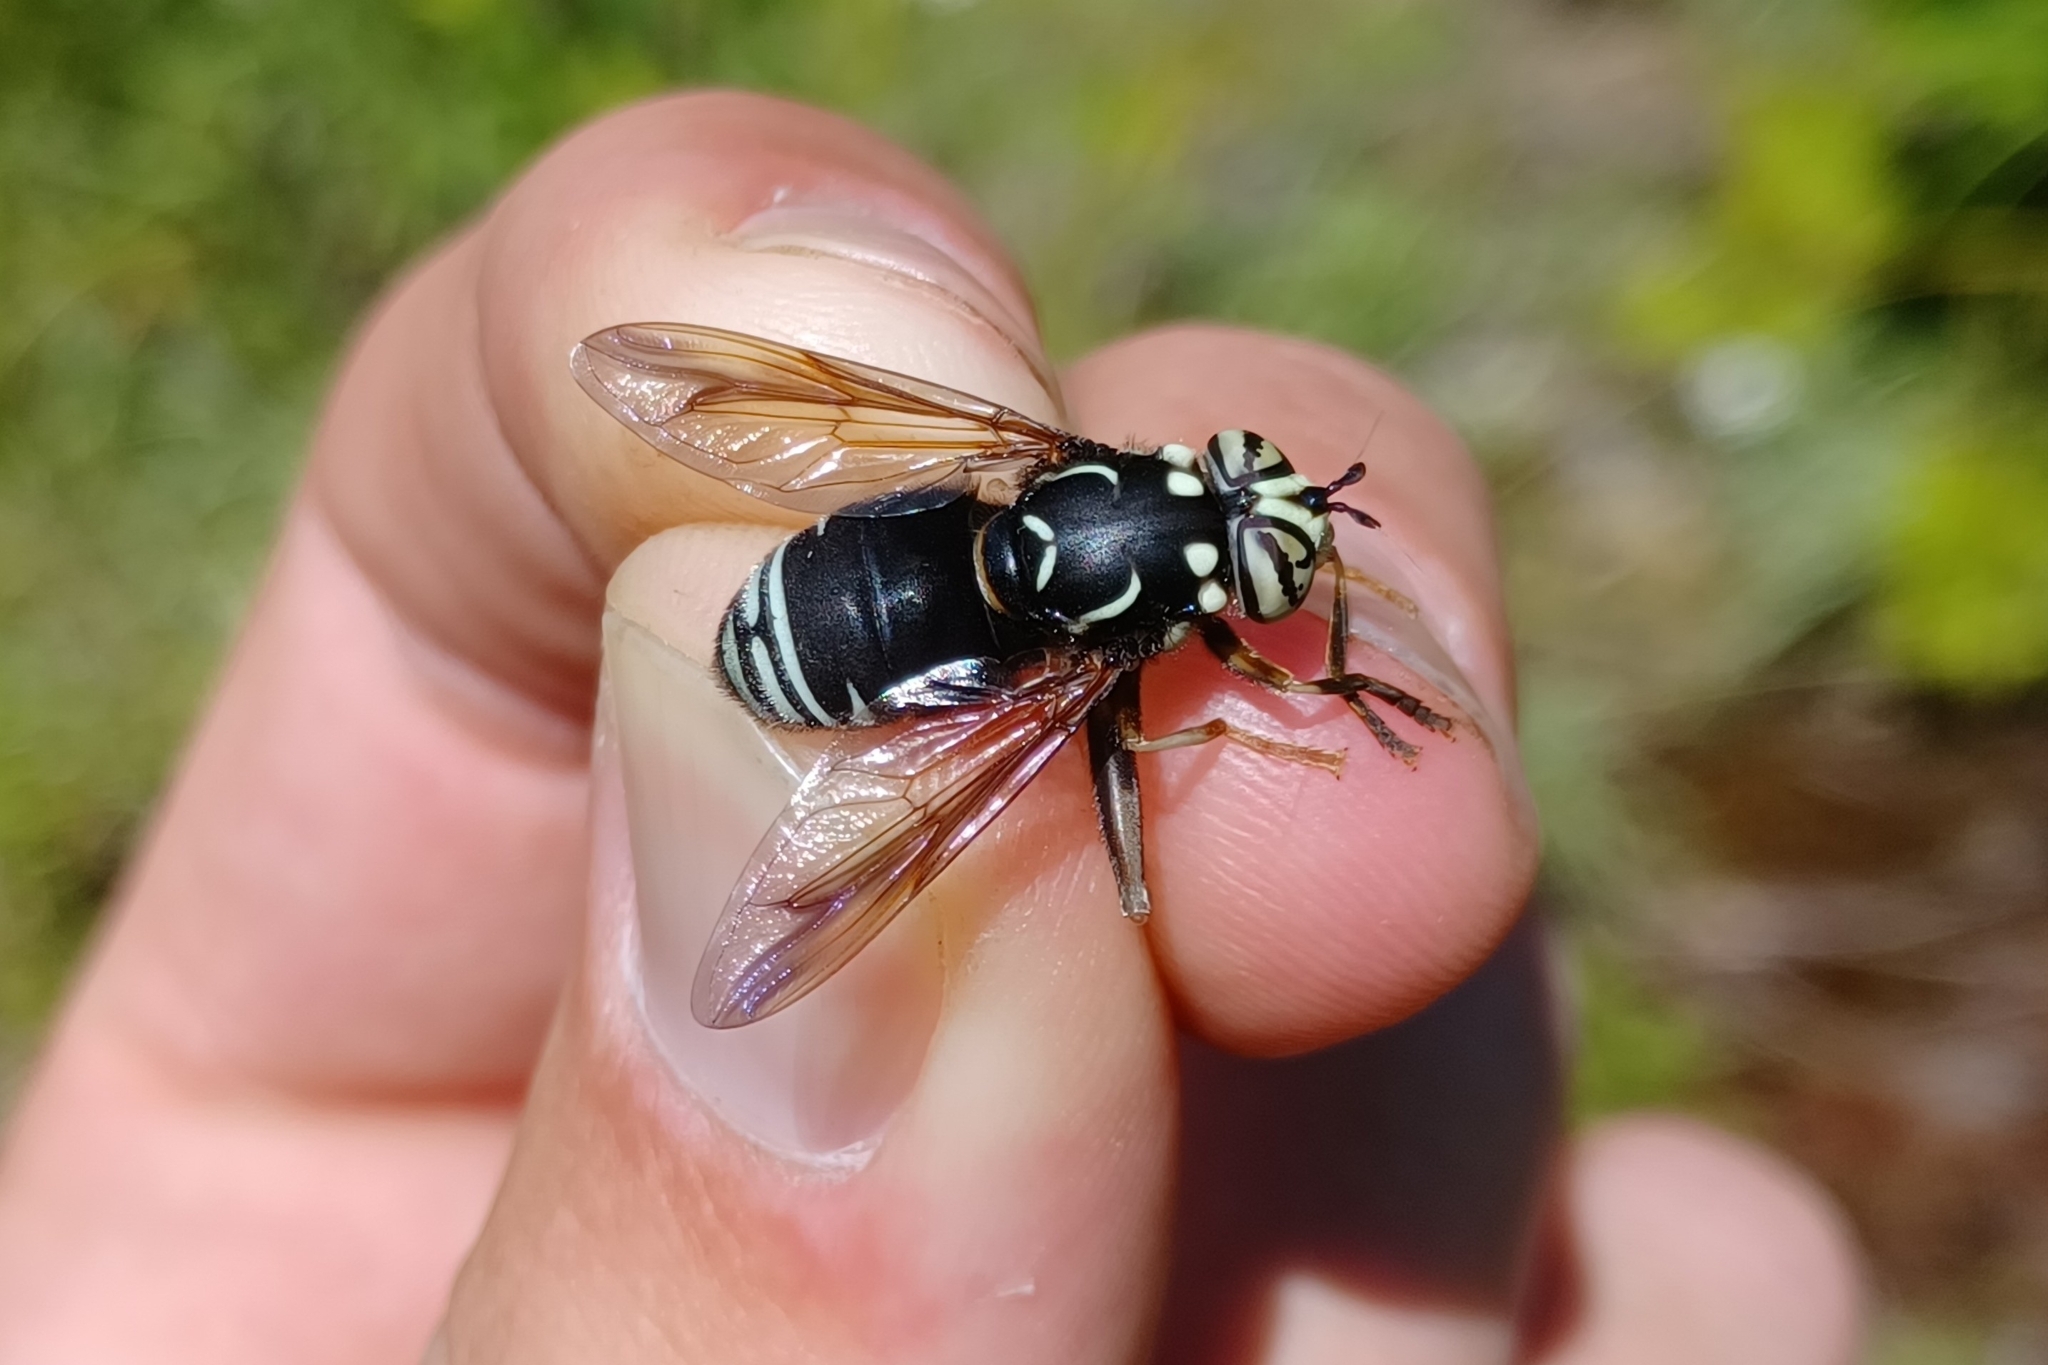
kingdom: Animalia
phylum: Arthropoda
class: Insecta
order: Diptera
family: Syrphidae
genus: Spilomyia
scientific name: Spilomyia fusca
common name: Bald-faced hornet fly
